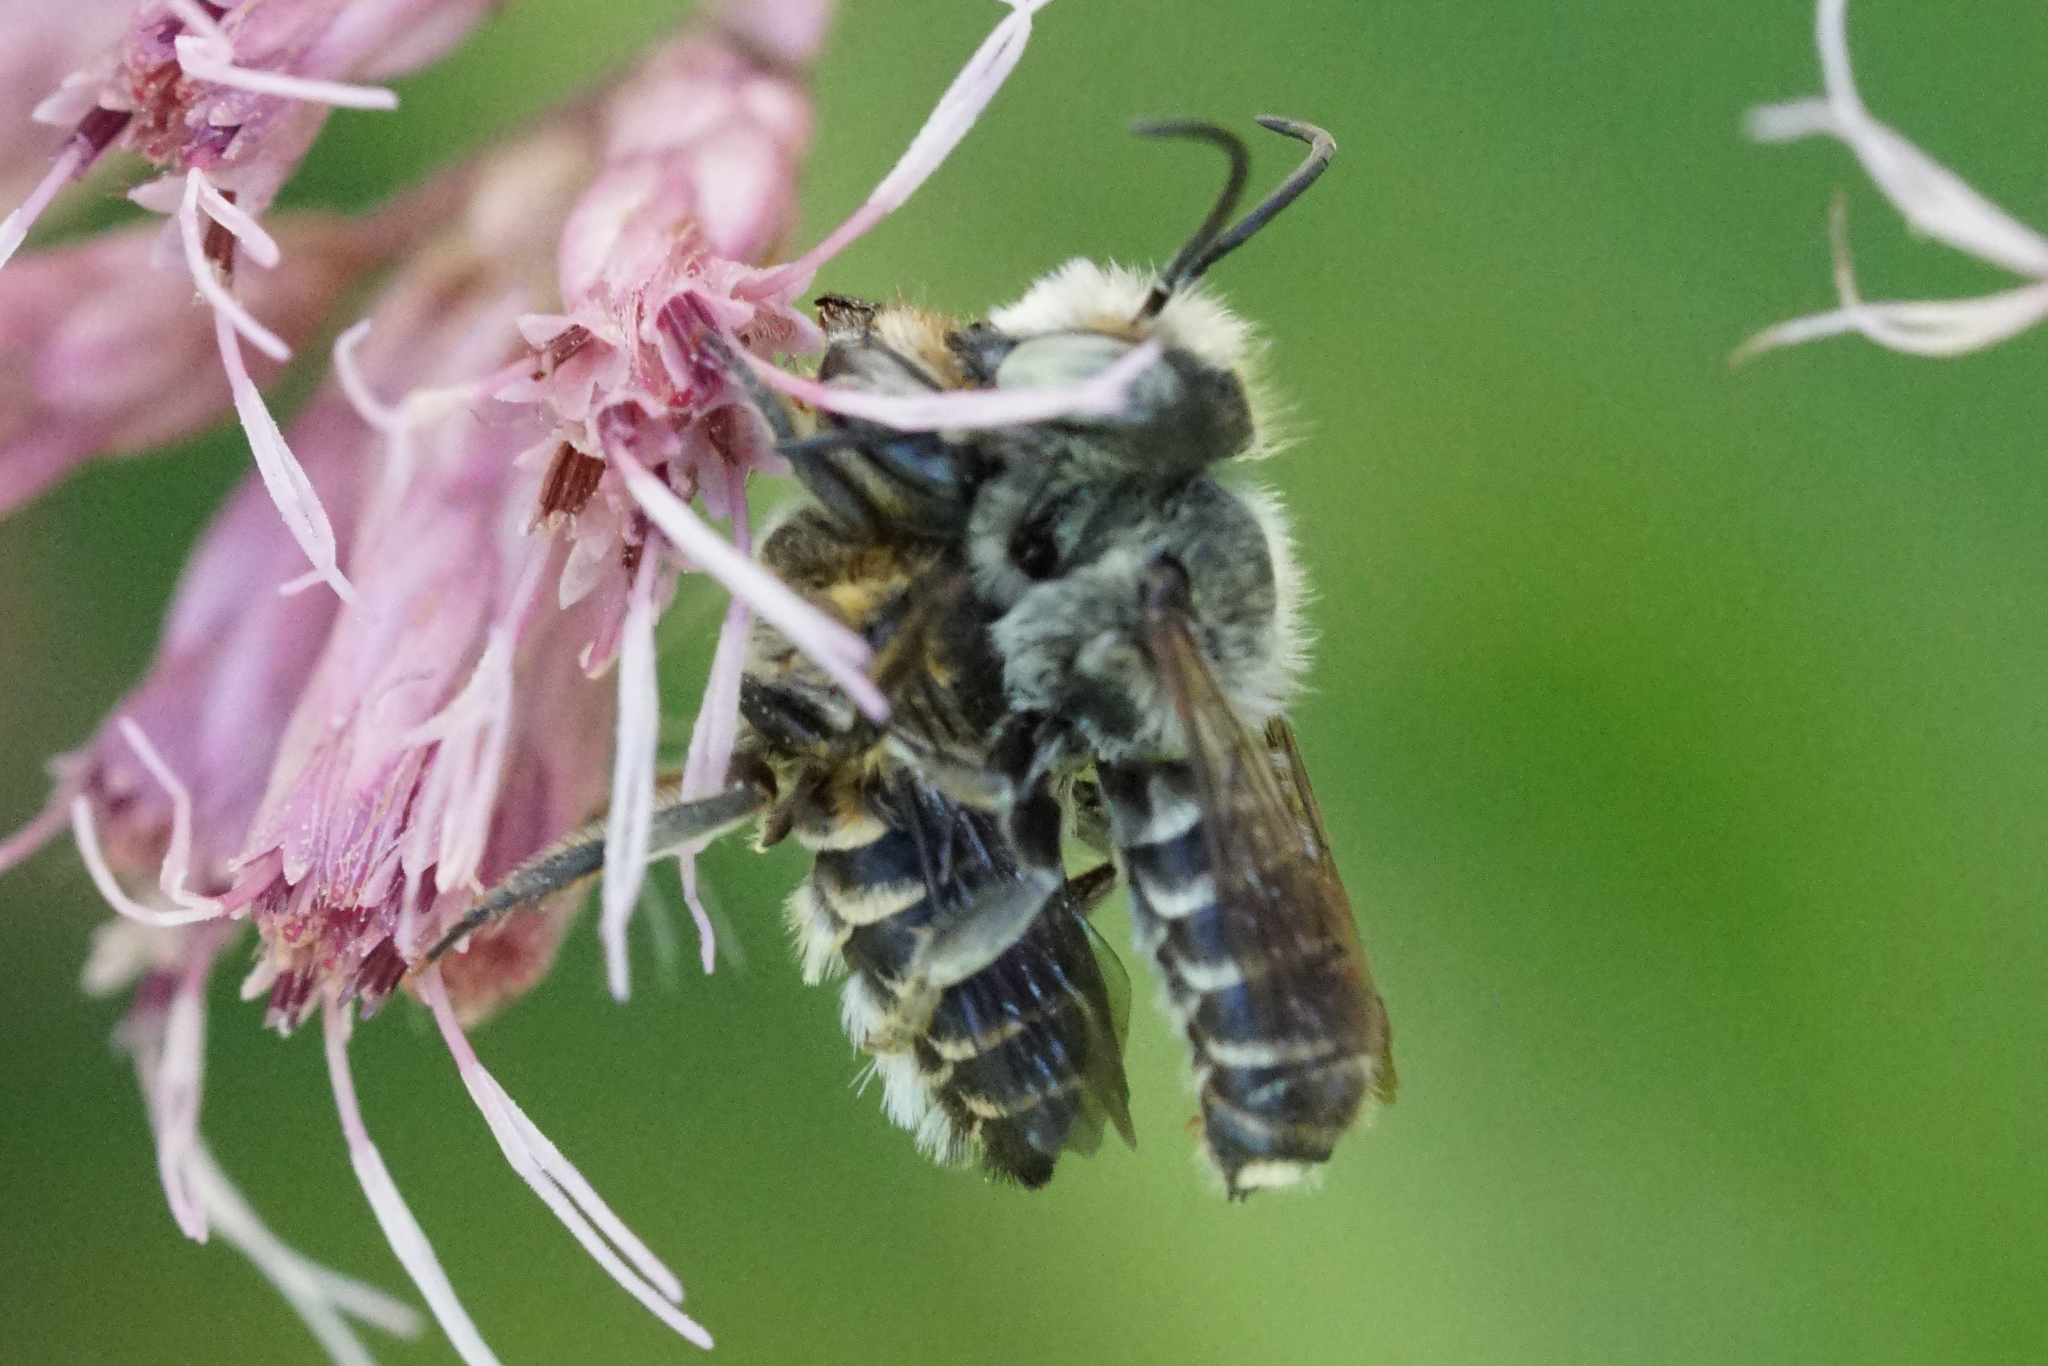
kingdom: Animalia
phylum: Arthropoda
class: Insecta
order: Hymenoptera
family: Megachilidae
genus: Megachile
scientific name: Megachile rotundata
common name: Alfalfa leafcutting bee
